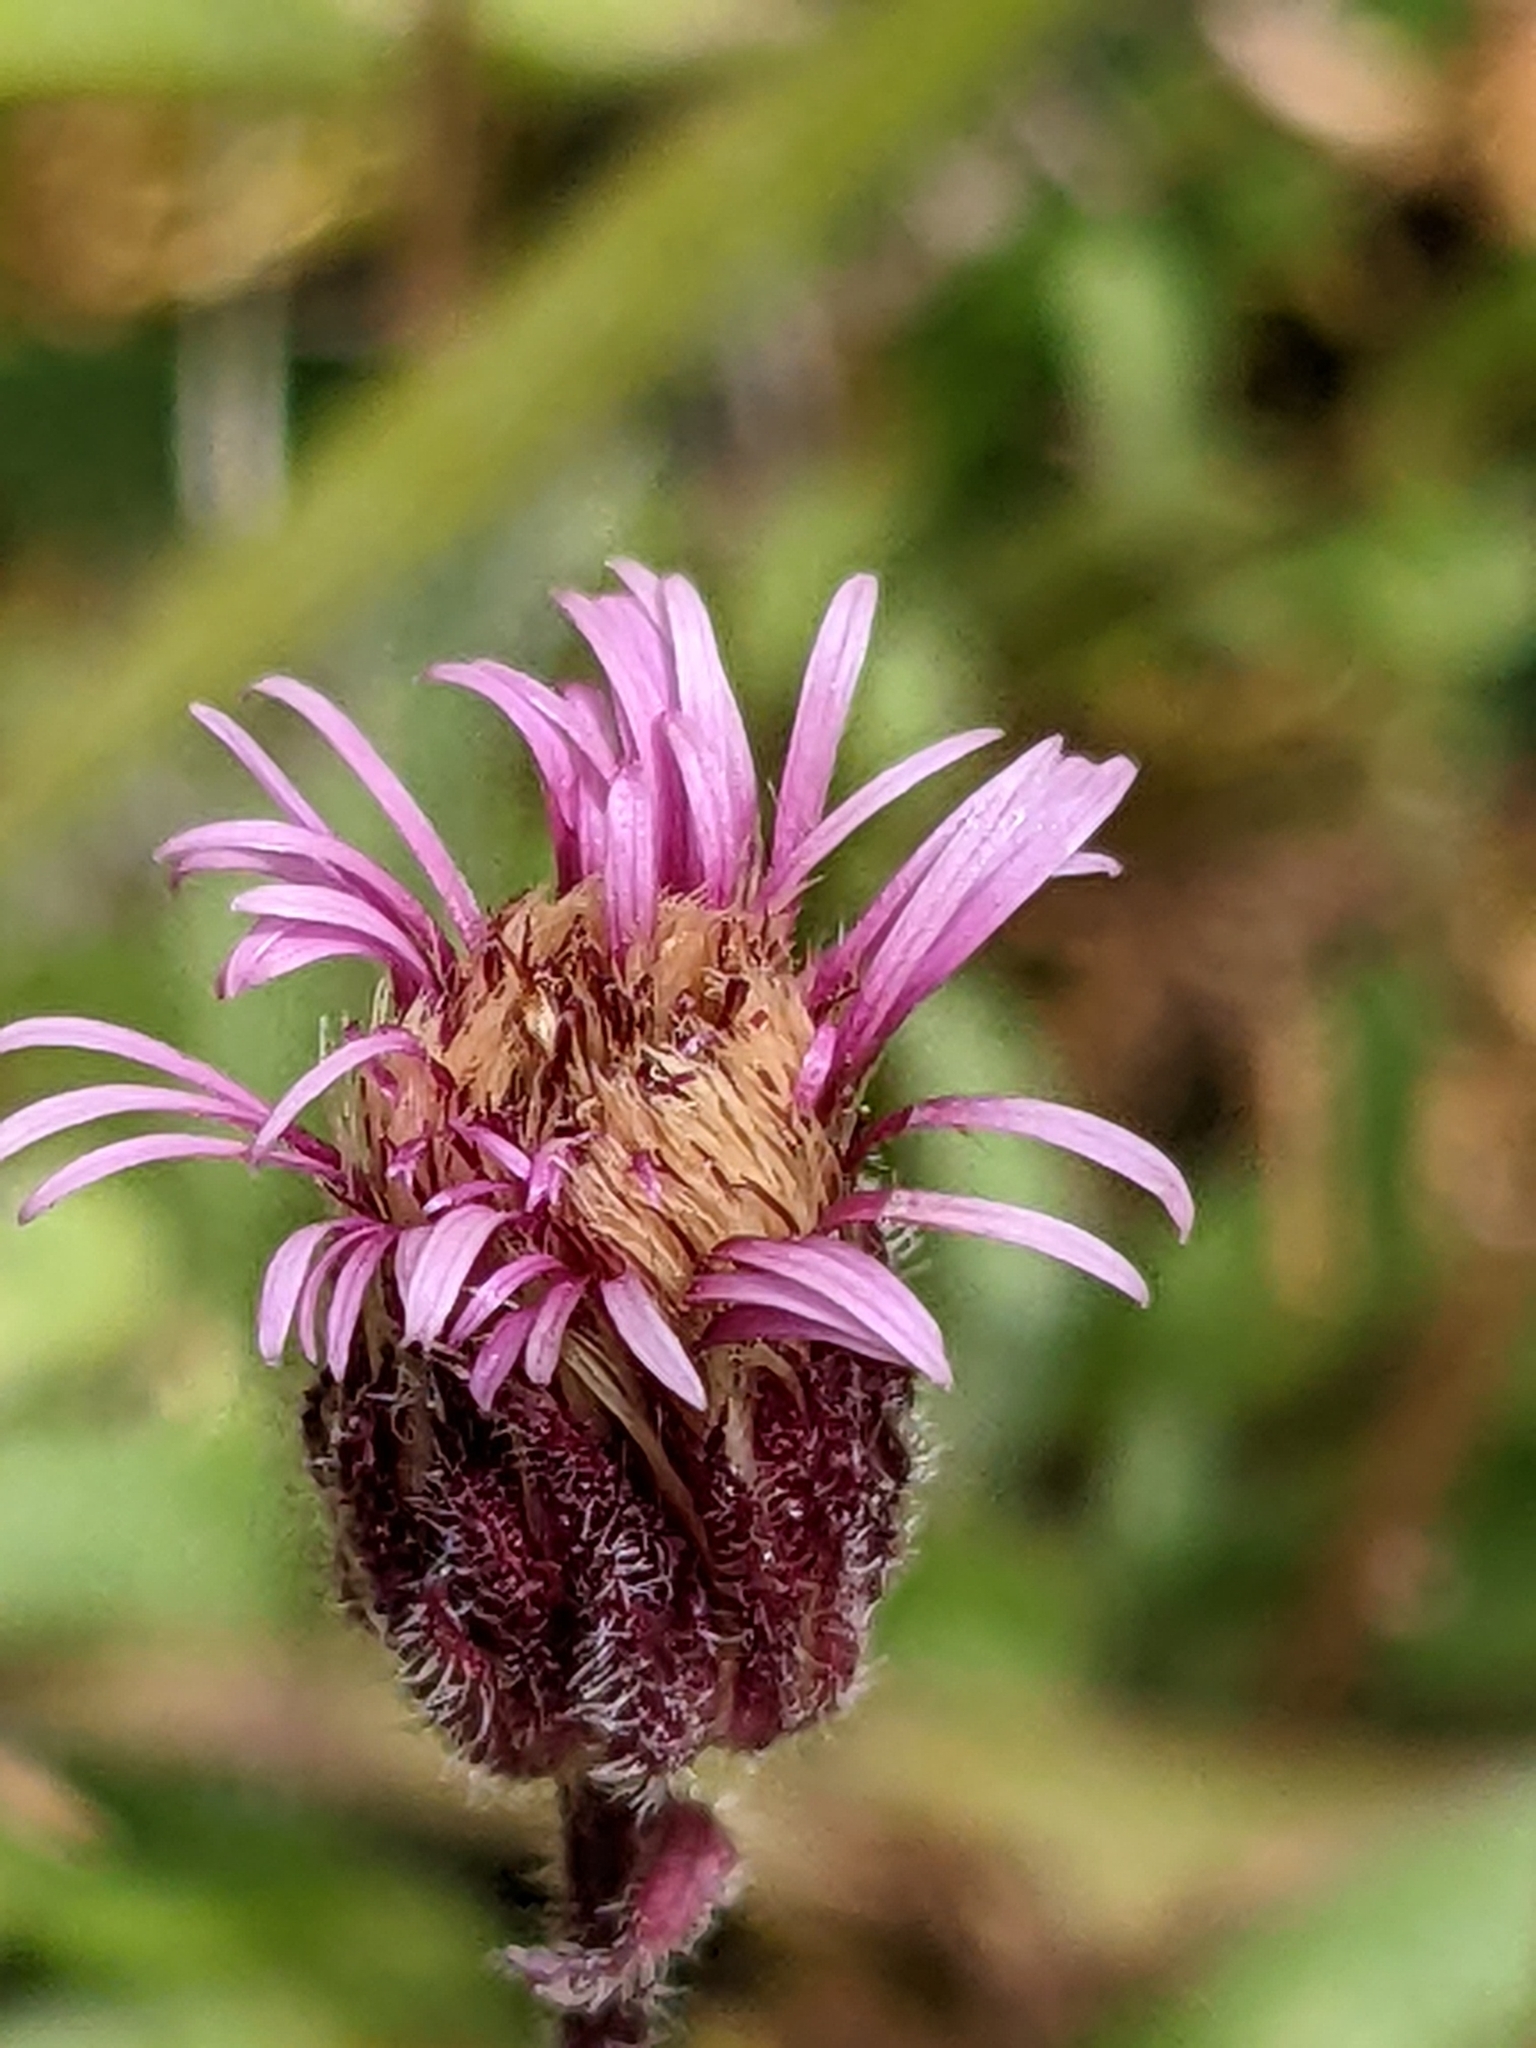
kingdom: Plantae
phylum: Tracheophyta
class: Magnoliopsida
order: Asterales
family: Asteraceae
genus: Erigeron
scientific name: Erigeron acris
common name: Blue fleabane
